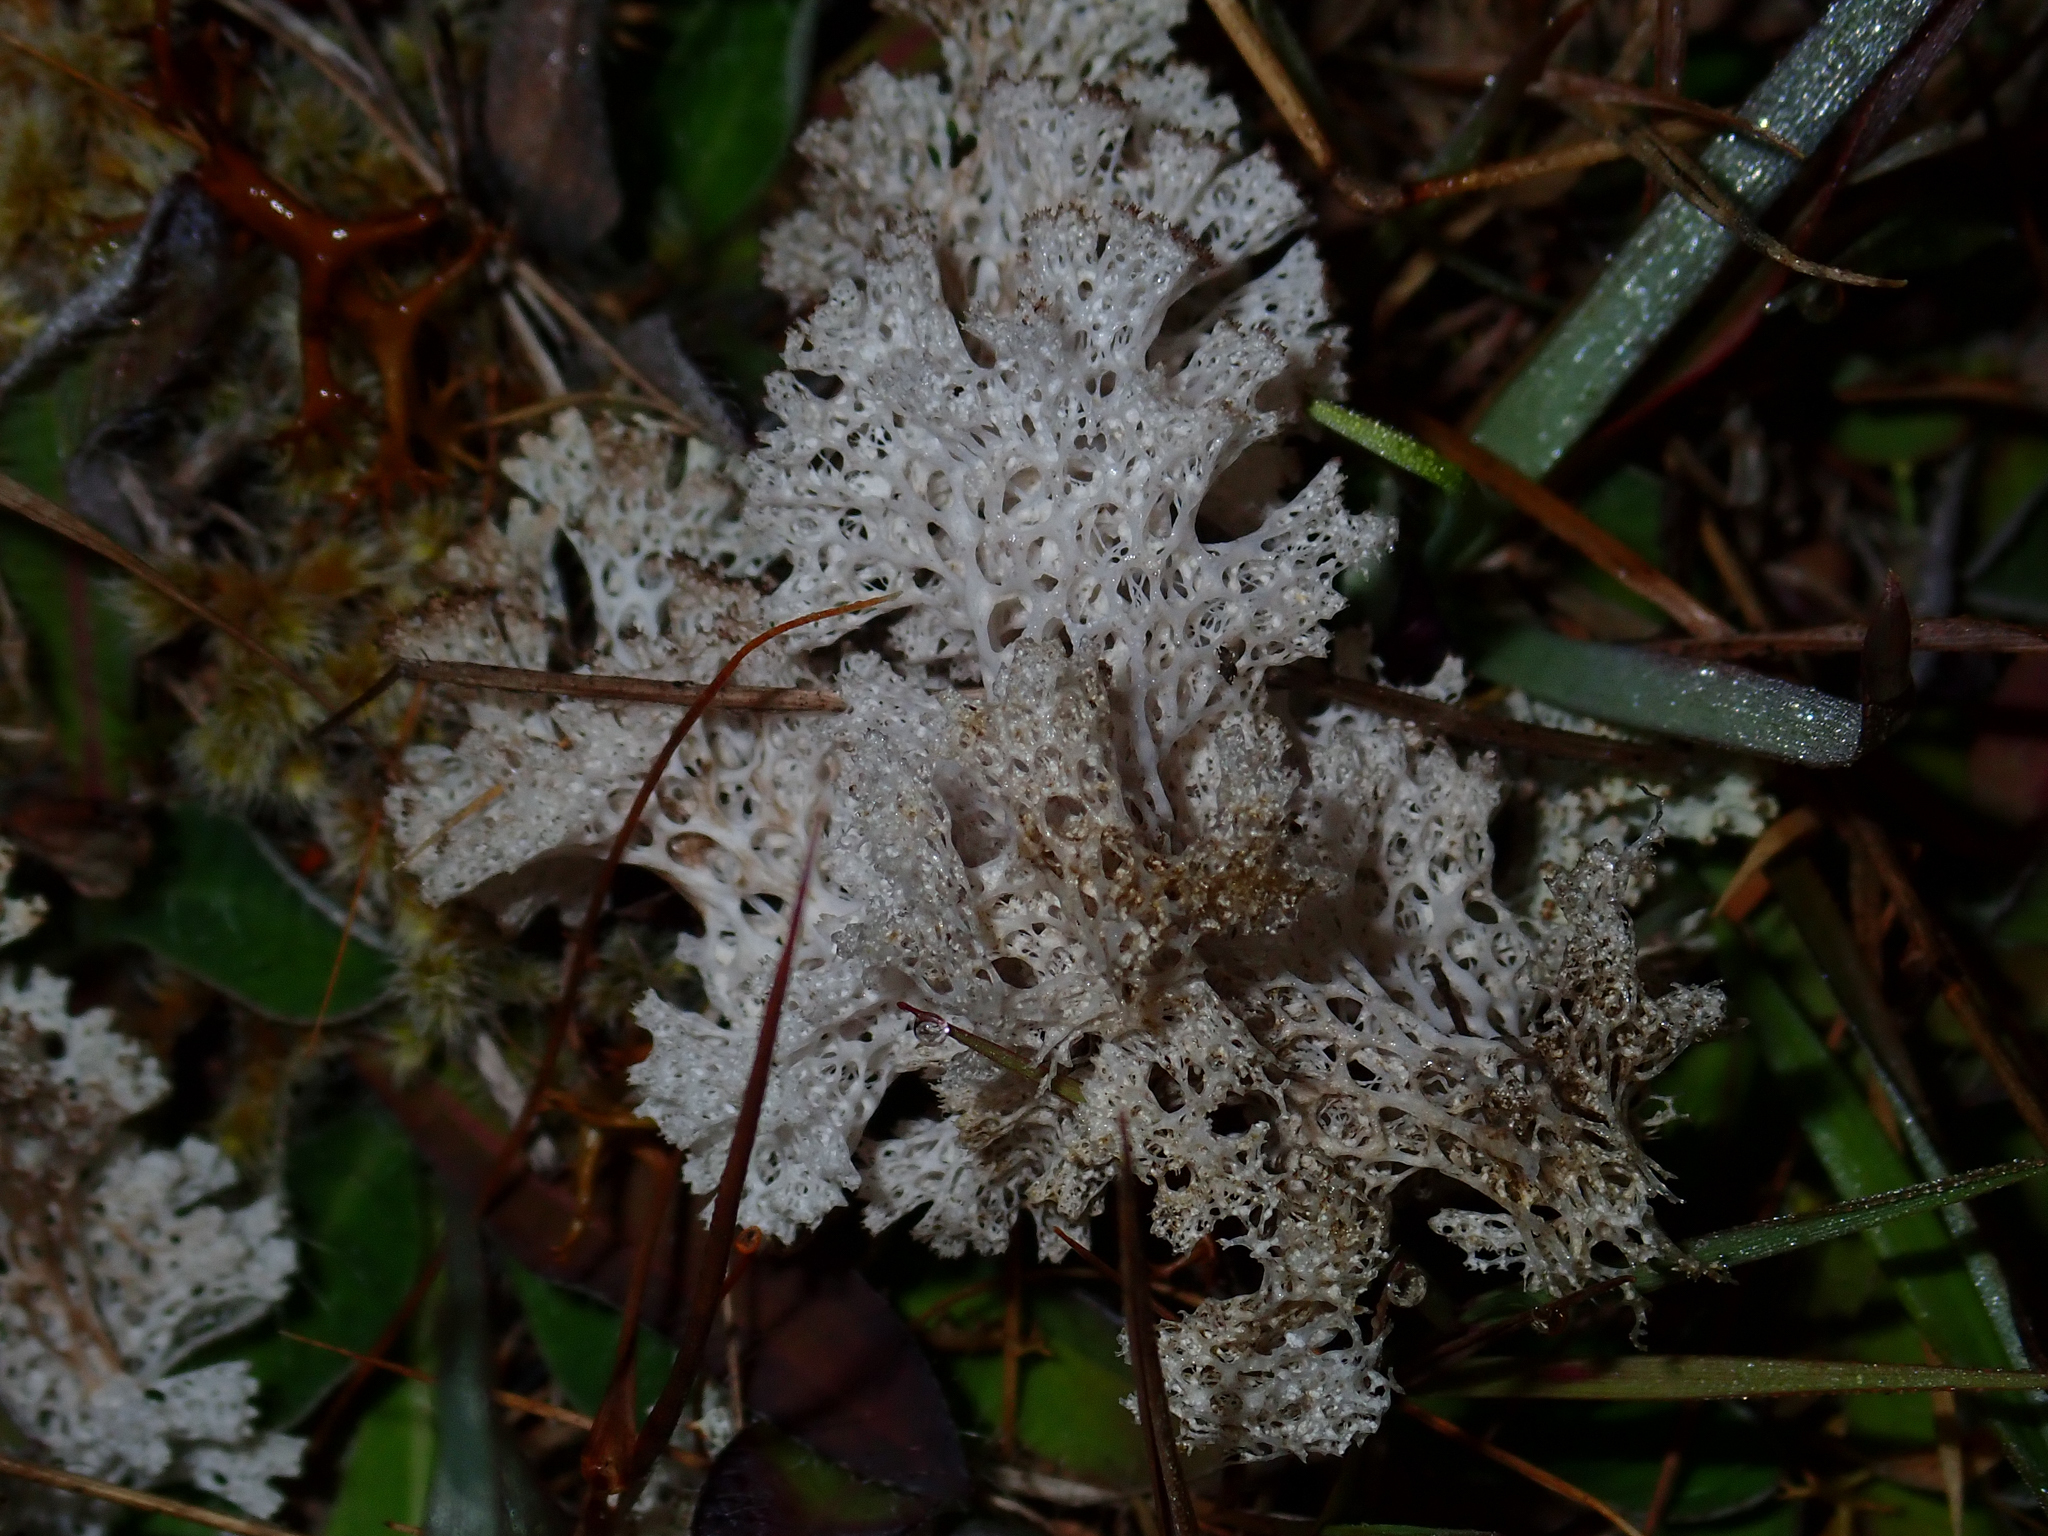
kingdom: Fungi
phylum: Ascomycota
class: Lecanoromycetes
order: Lecanorales
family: Cladoniaceae
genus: Pulchrocladia
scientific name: Pulchrocladia retipora
